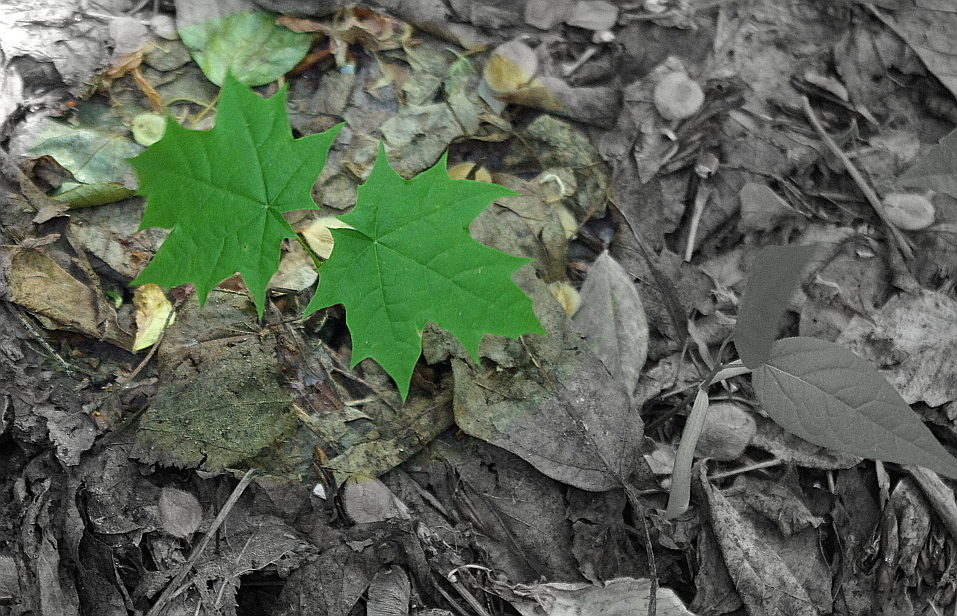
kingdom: Plantae
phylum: Tracheophyta
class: Magnoliopsida
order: Sapindales
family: Sapindaceae
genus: Acer
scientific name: Acer platanoides
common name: Norway maple
